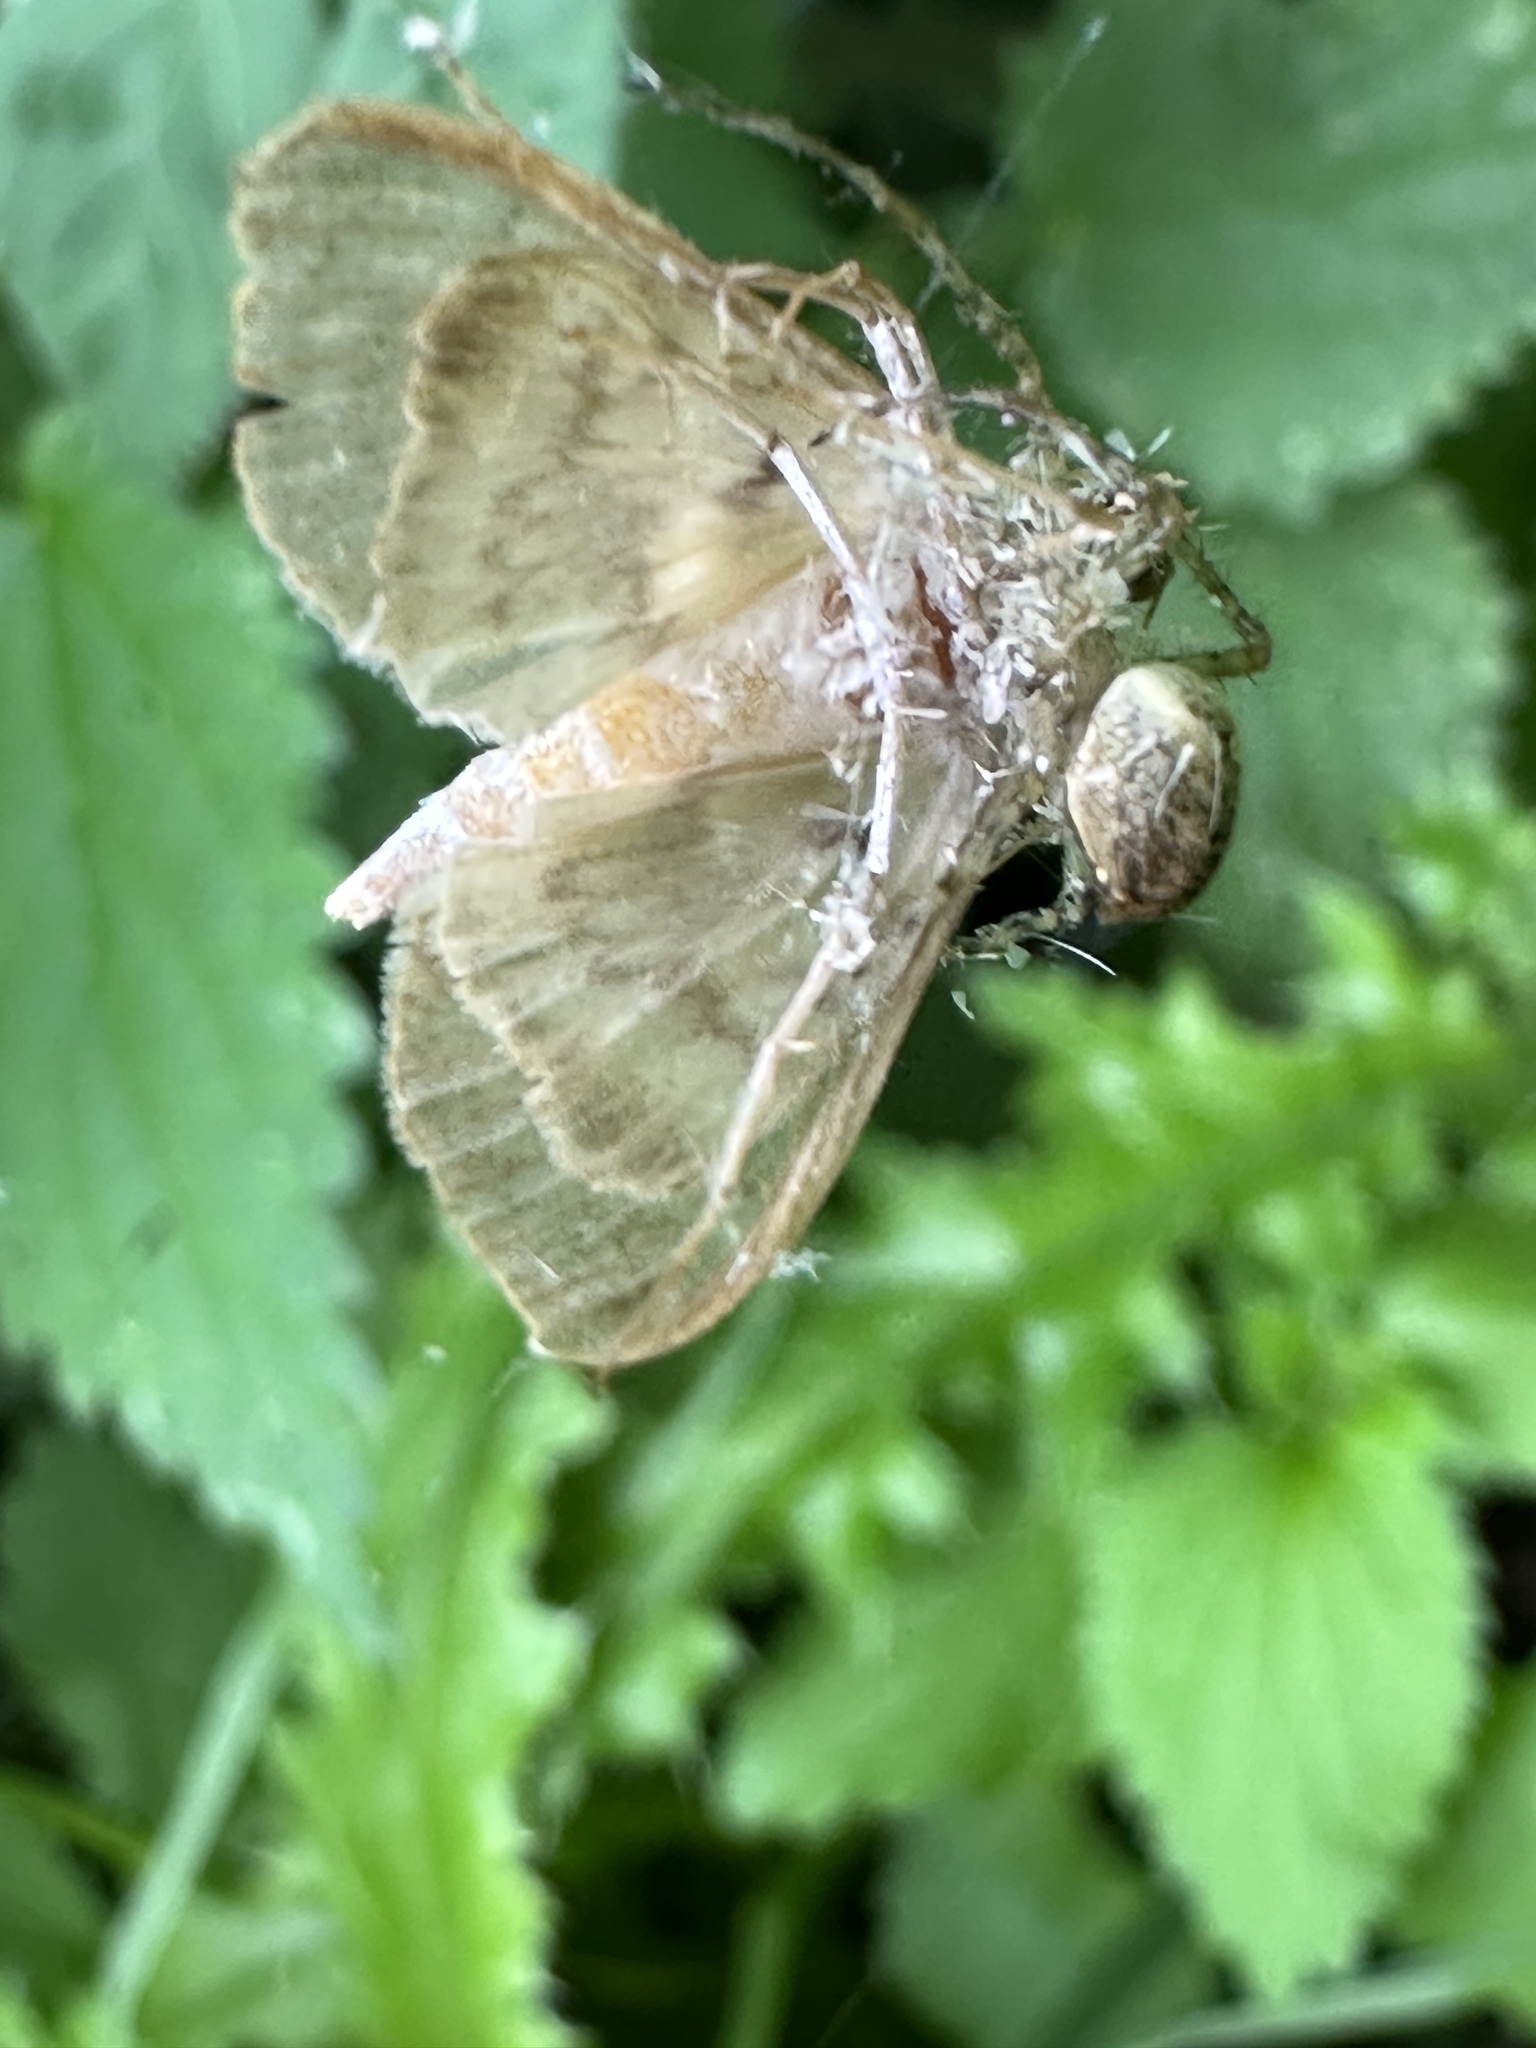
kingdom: Animalia
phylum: Arthropoda
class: Insecta
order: Lepidoptera
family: Crambidae
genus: Patania
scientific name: Patania ruralis
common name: Mother of pearl
